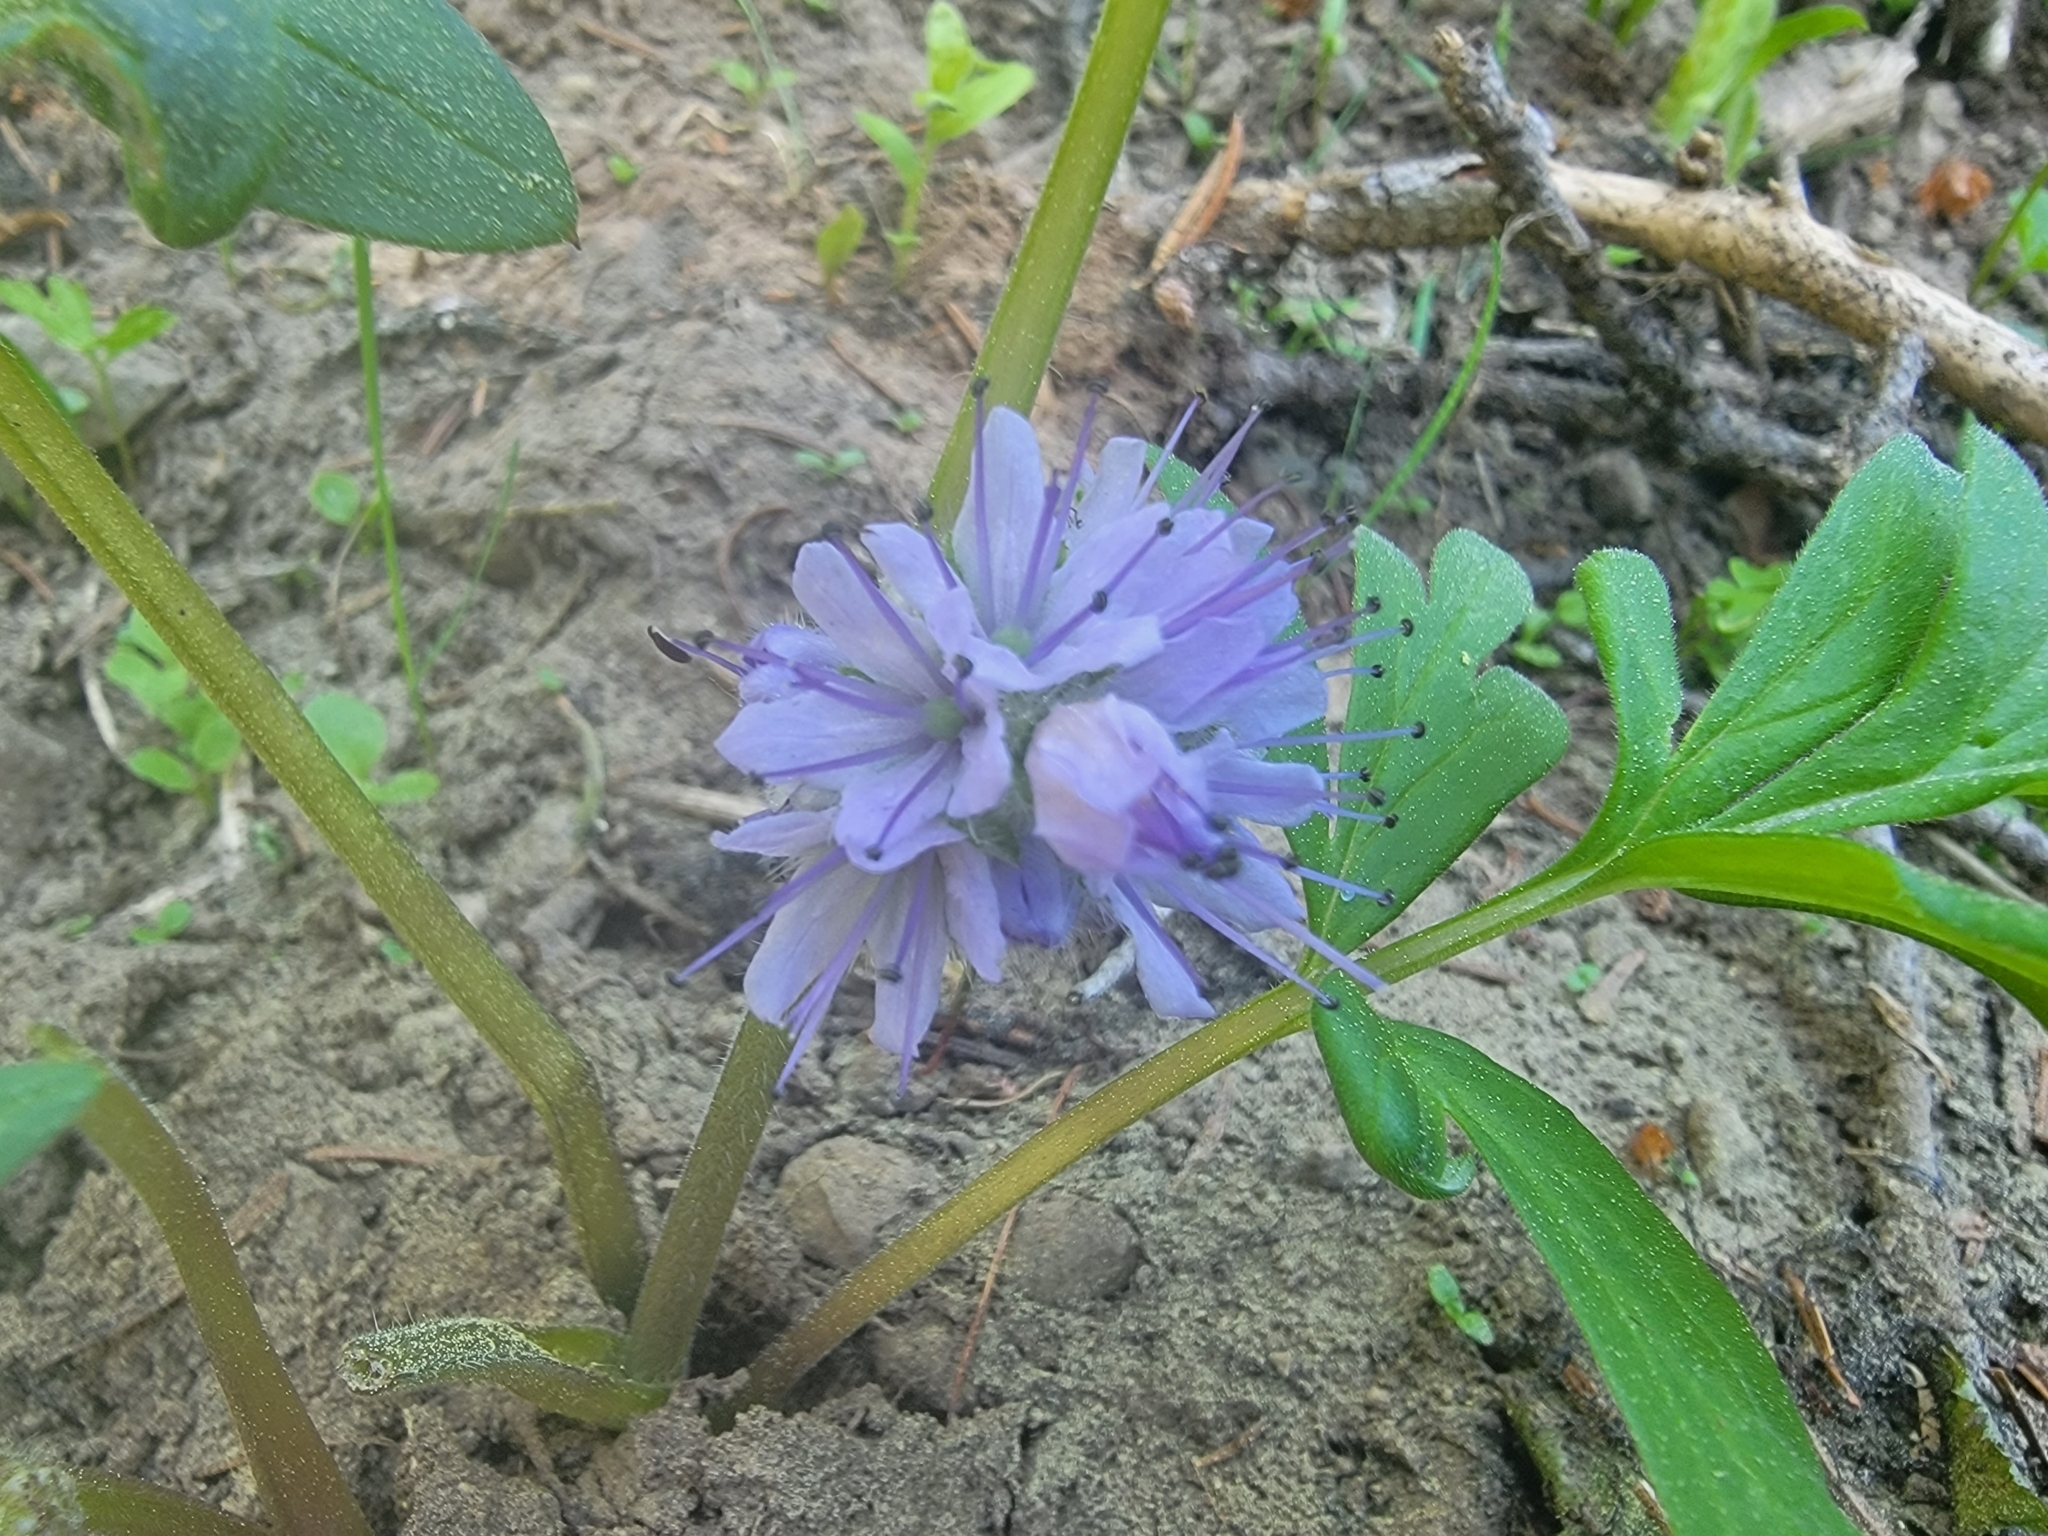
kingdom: Plantae
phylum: Tracheophyta
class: Magnoliopsida
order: Boraginales
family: Hydrophyllaceae
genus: Hydrophyllum
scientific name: Hydrophyllum capitatum
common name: Woollen-breeches
